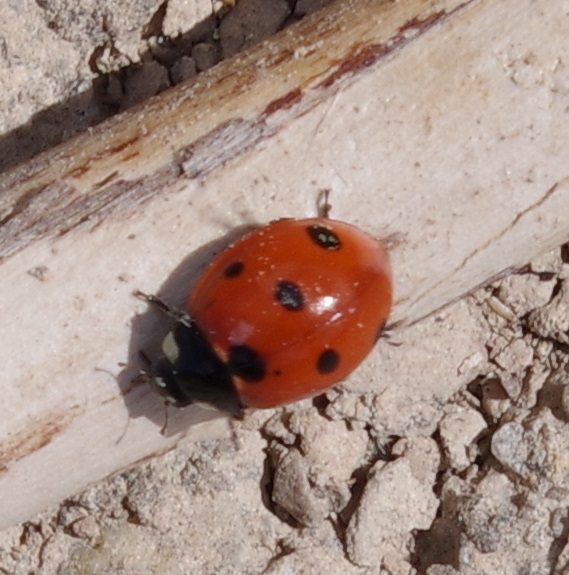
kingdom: Animalia
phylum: Arthropoda
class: Insecta
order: Coleoptera
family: Coccinellidae
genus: Coccinella
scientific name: Coccinella septempunctata
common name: Sevenspotted lady beetle
